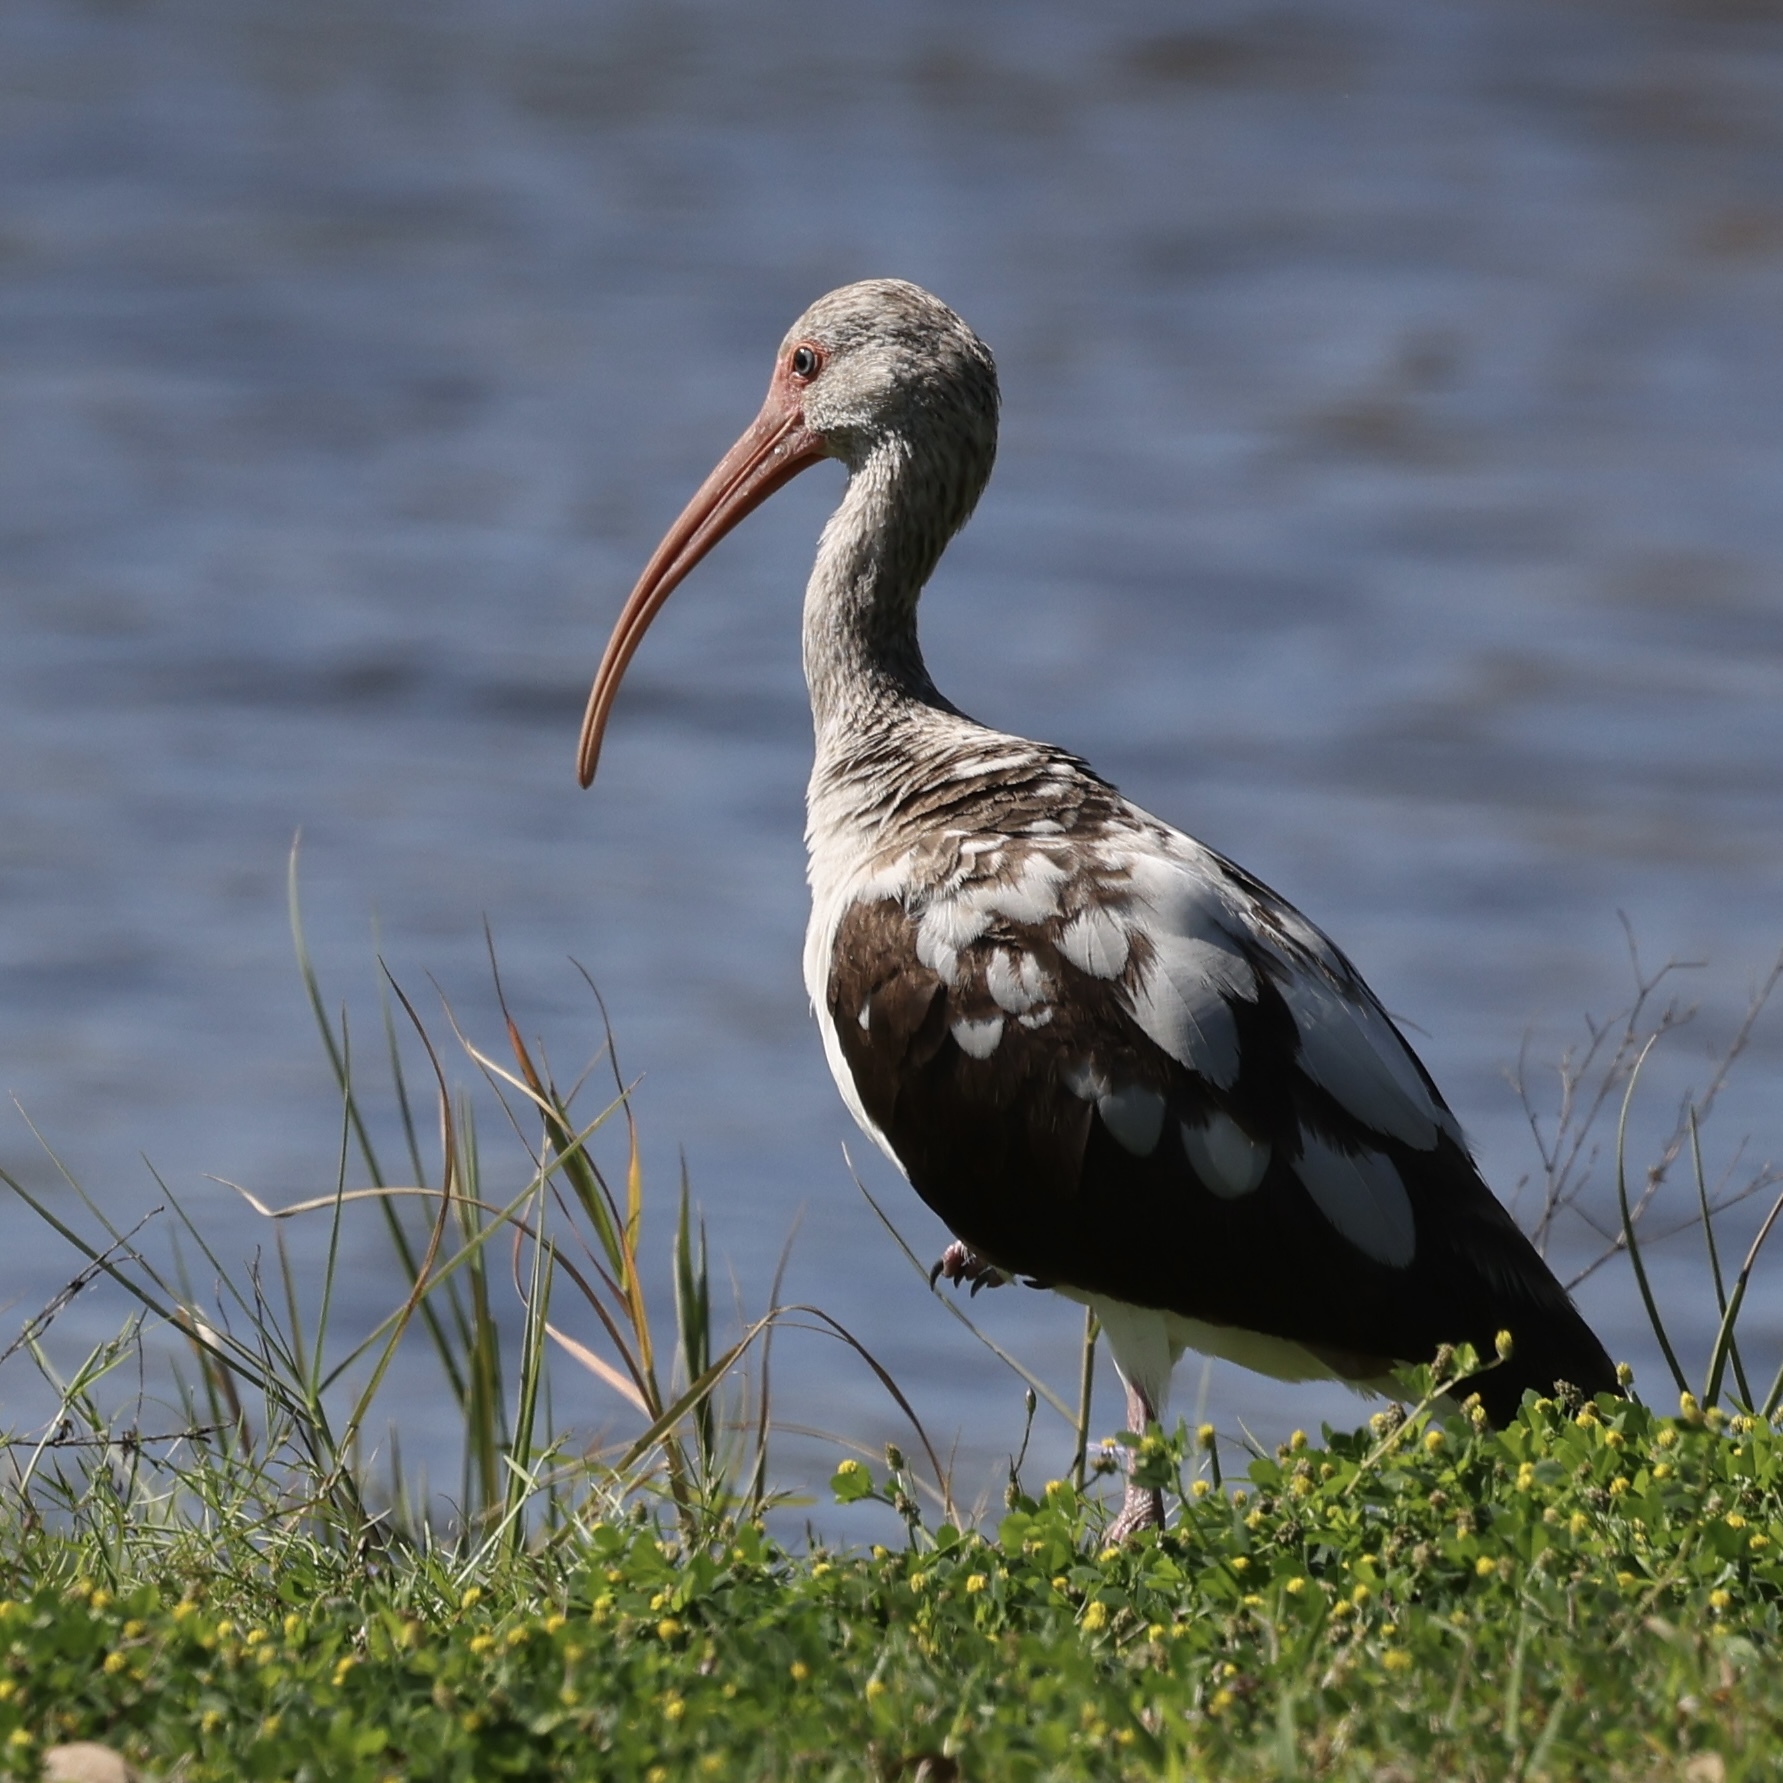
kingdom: Animalia
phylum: Chordata
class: Aves
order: Pelecaniformes
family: Threskiornithidae
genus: Eudocimus
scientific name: Eudocimus albus
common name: White ibis
